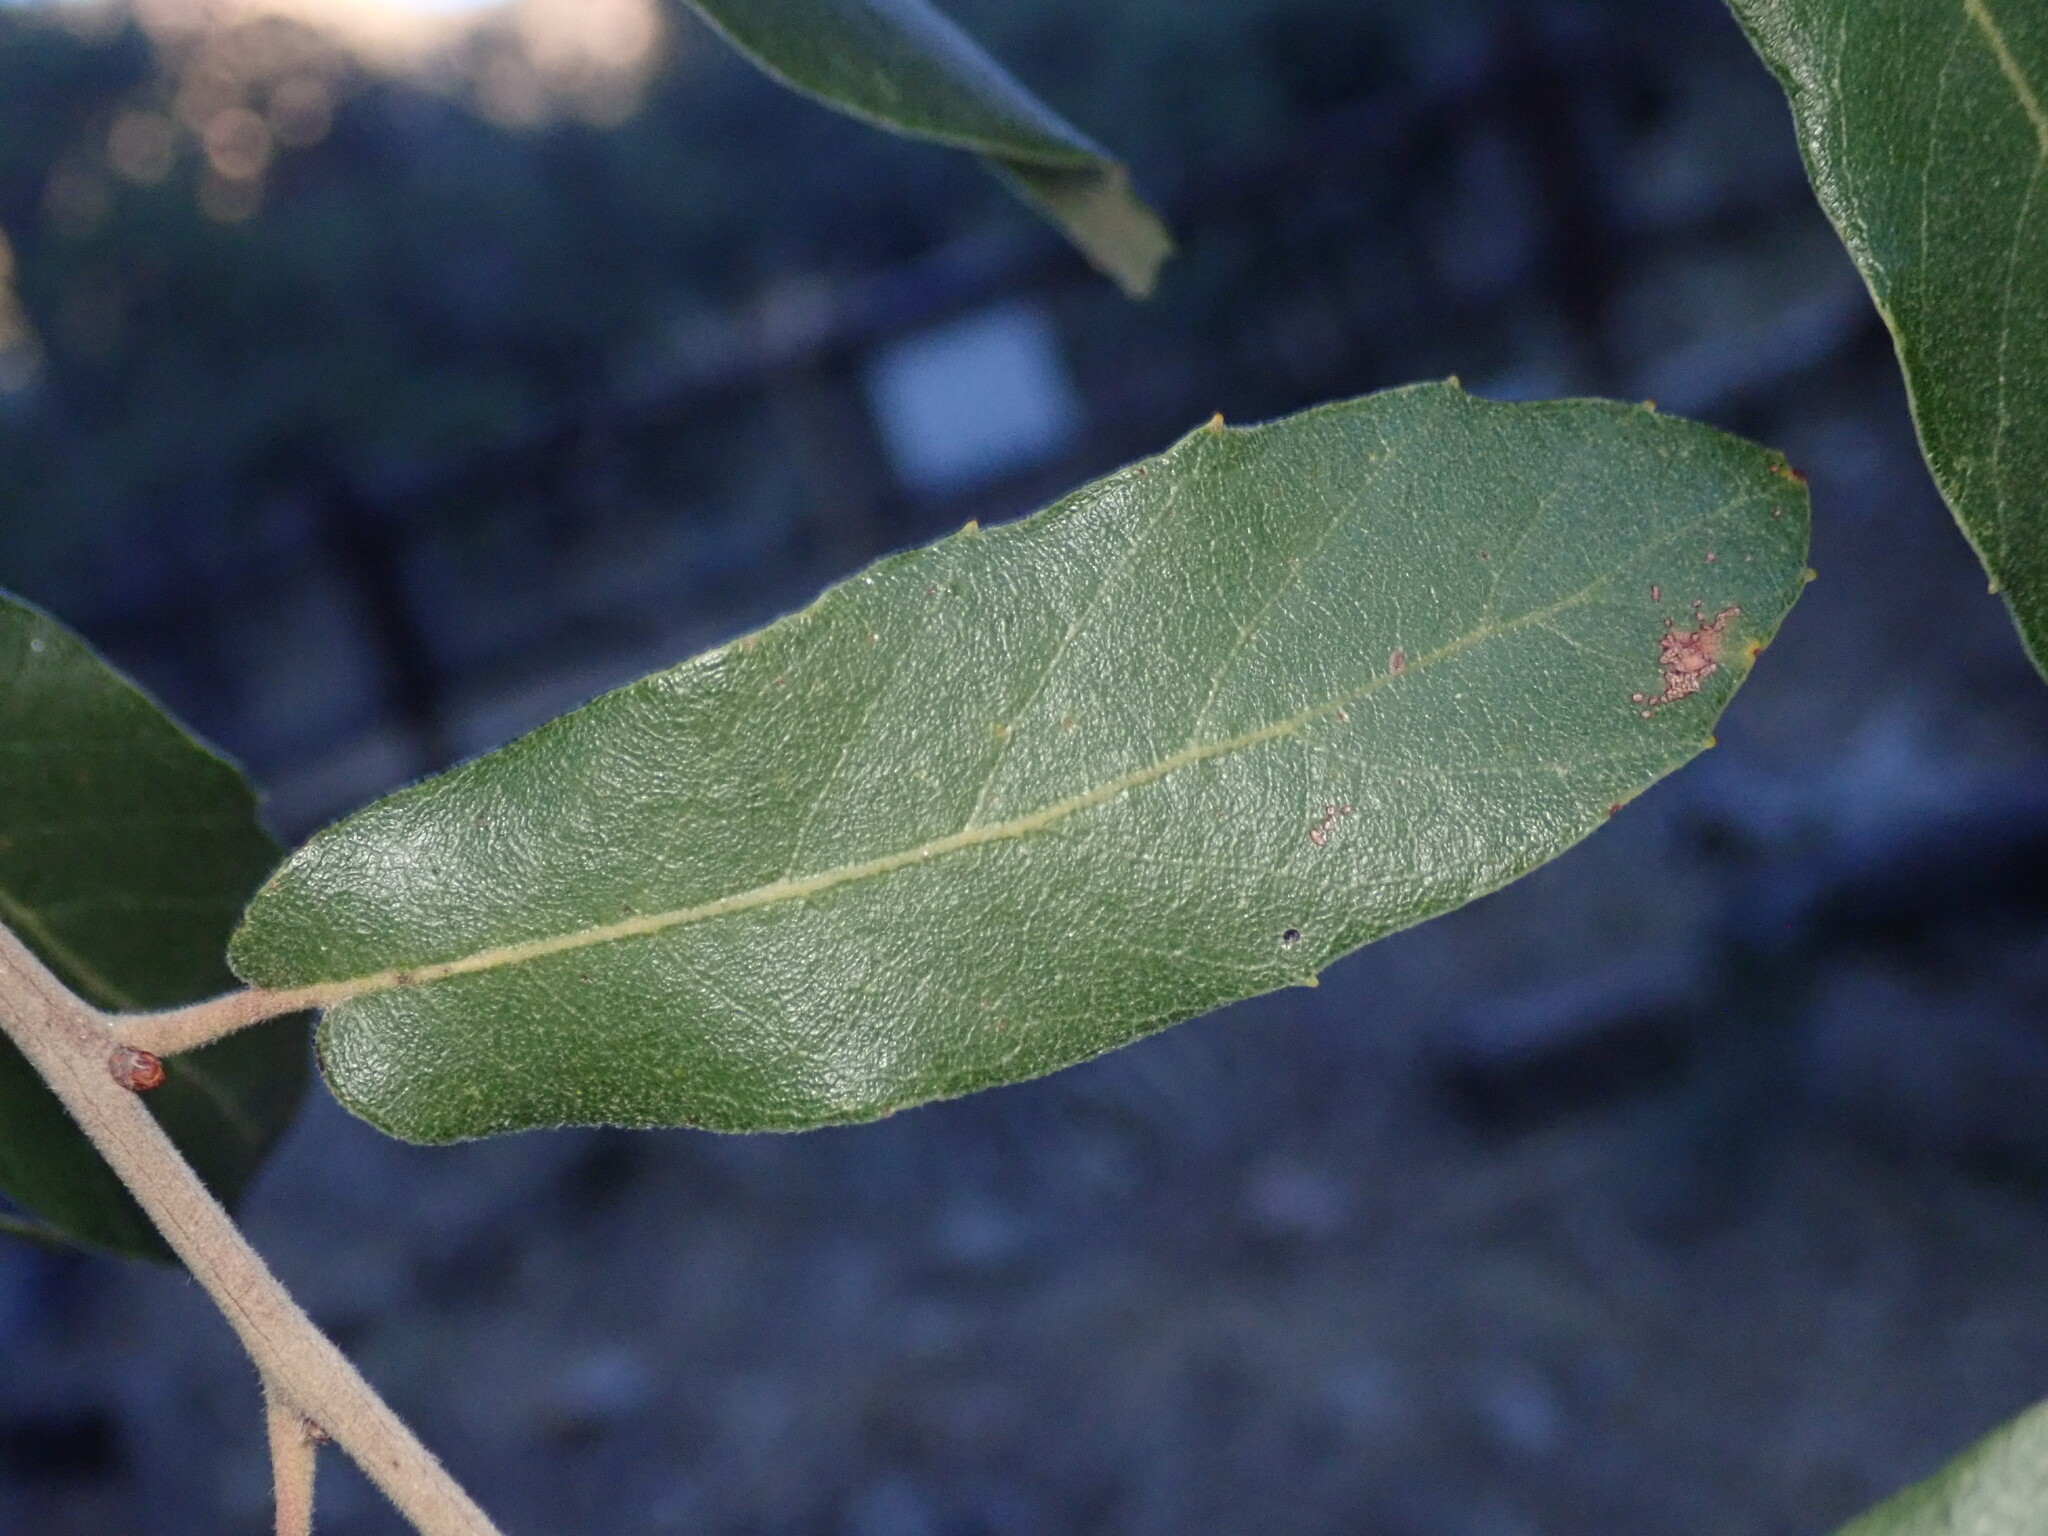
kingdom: Plantae
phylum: Tracheophyta
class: Magnoliopsida
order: Fagales
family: Fagaceae
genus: Quercus
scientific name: Quercus arizonica
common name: Arizona white oak
